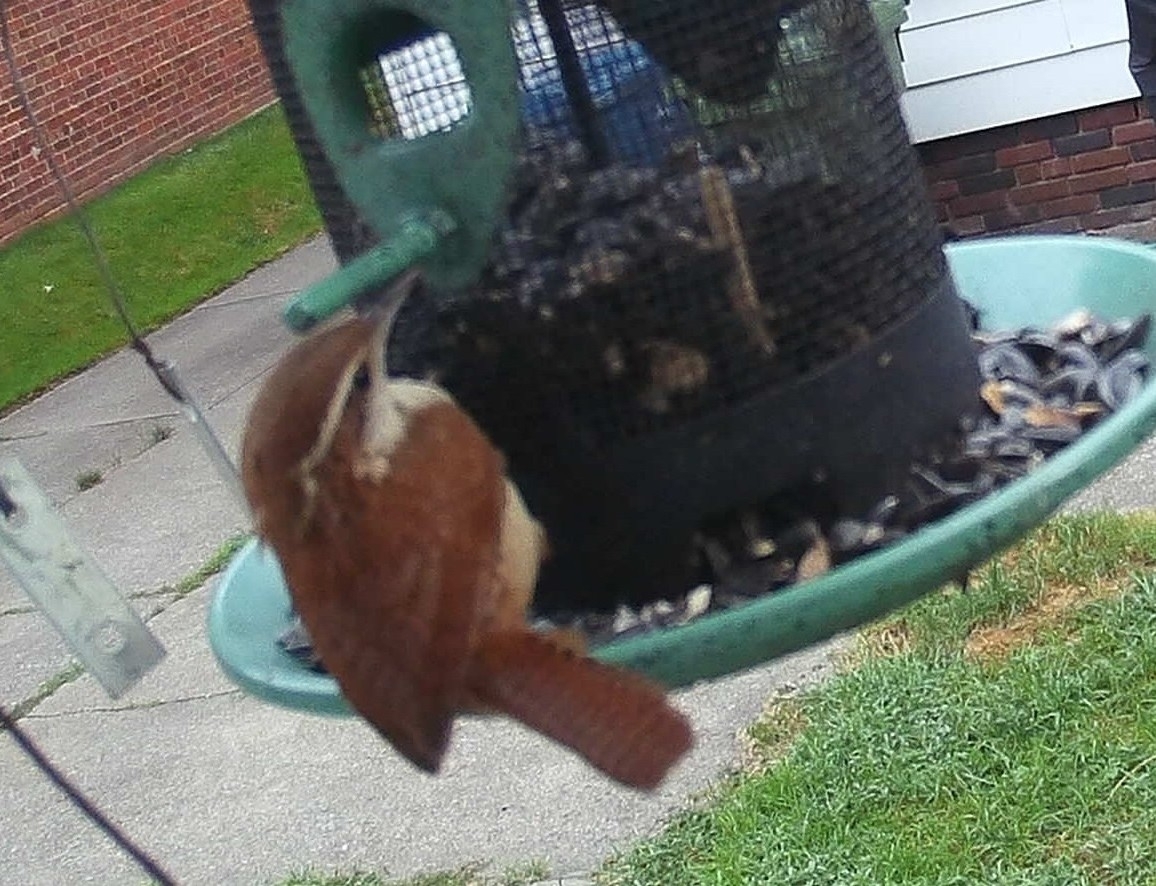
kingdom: Animalia
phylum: Chordata
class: Aves
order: Passeriformes
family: Troglodytidae
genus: Thryothorus
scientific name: Thryothorus ludovicianus
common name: Carolina wren
